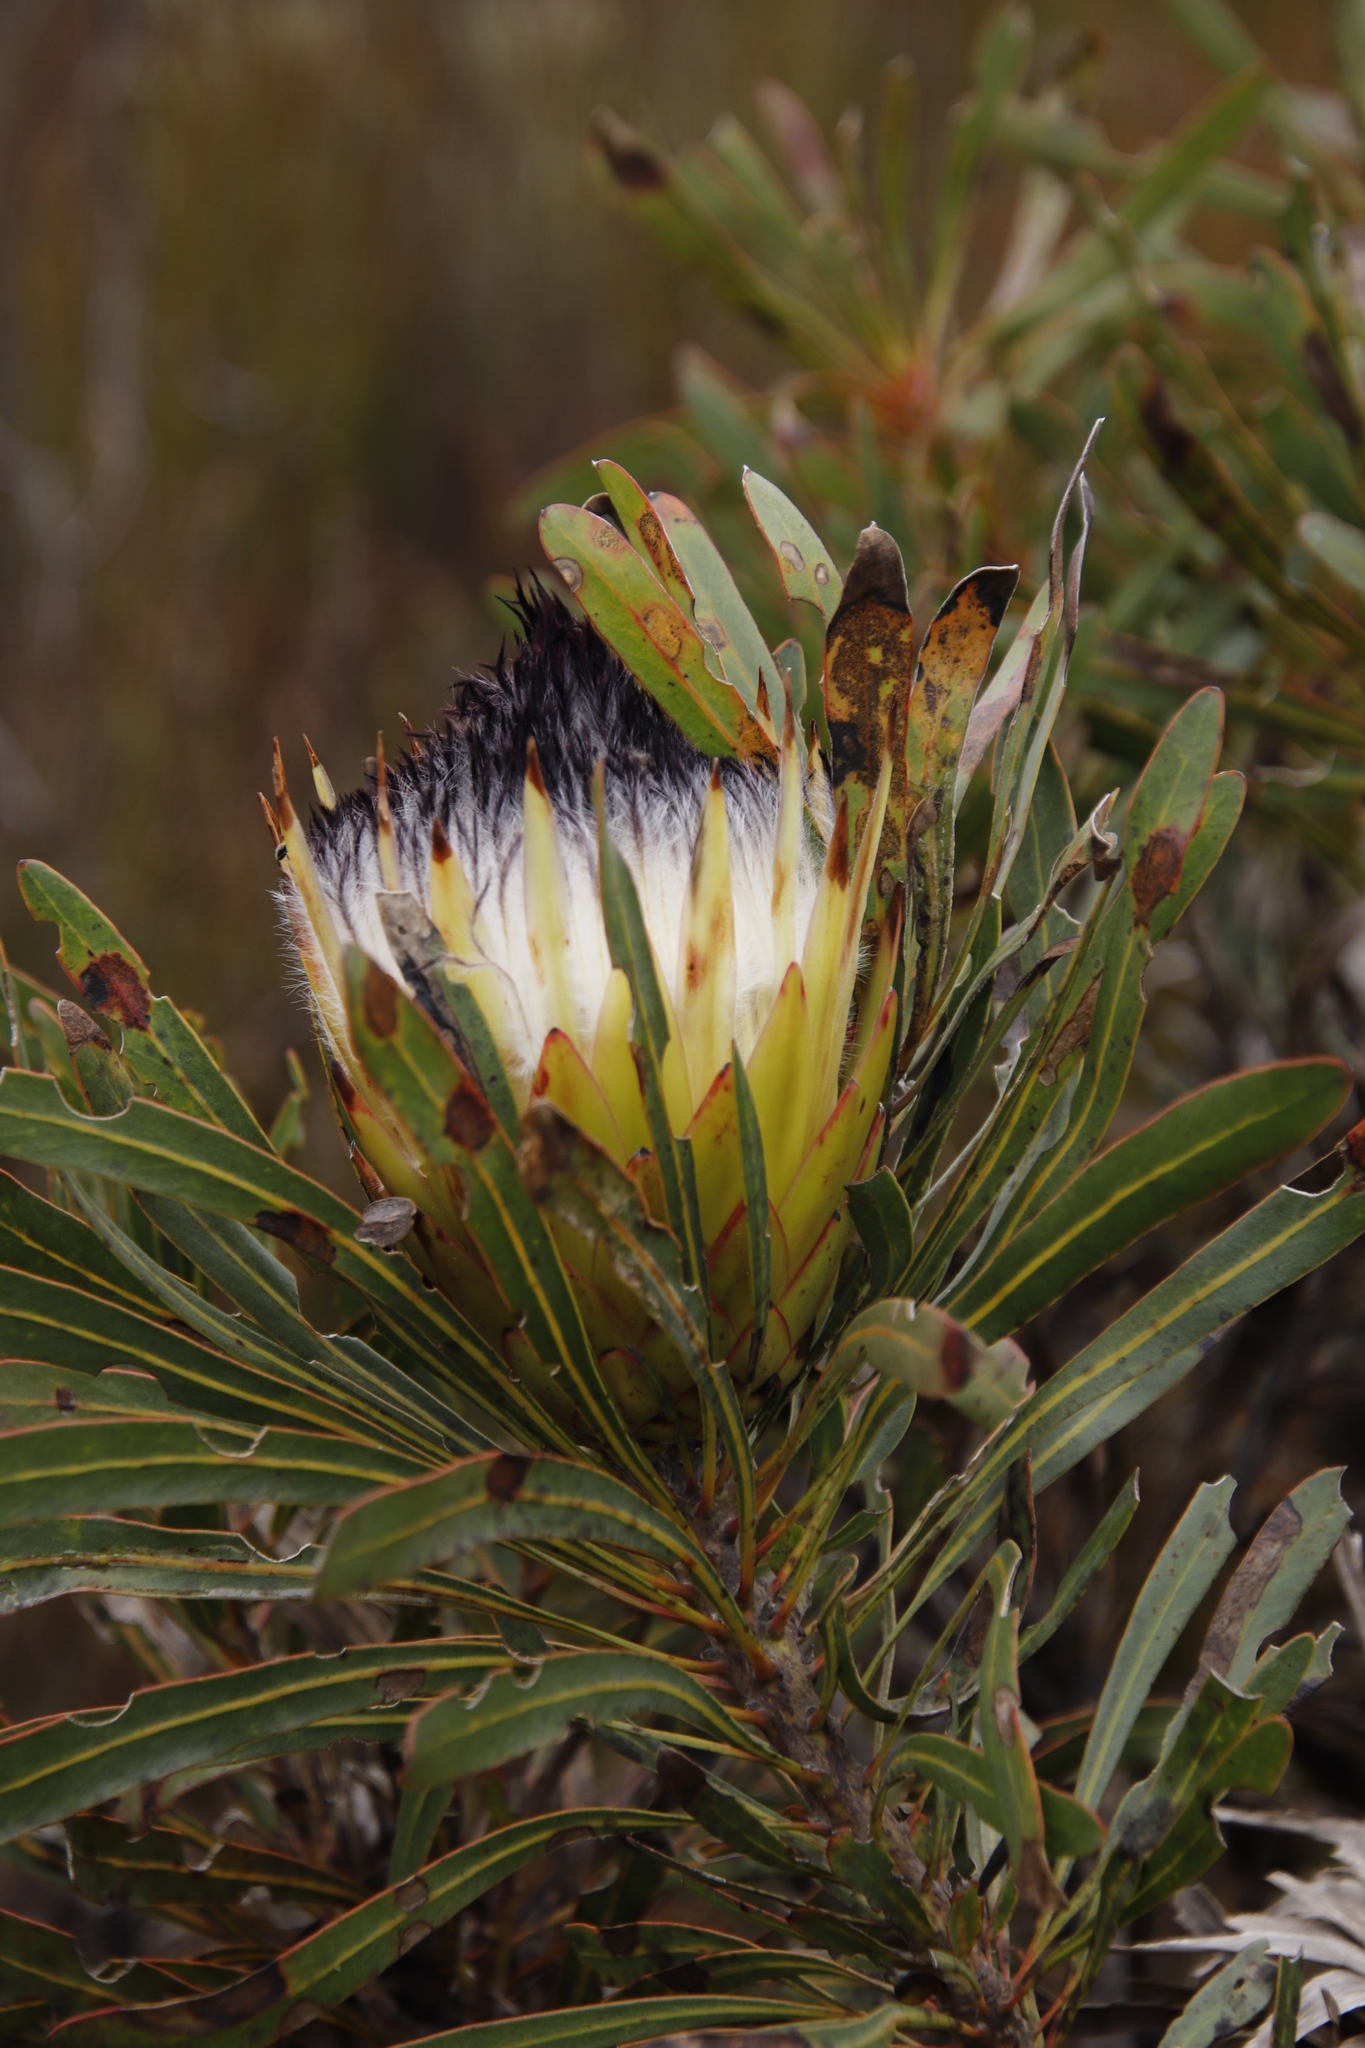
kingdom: Plantae
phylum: Tracheophyta
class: Magnoliopsida
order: Proteales
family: Proteaceae
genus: Protea
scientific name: Protea longifolia
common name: Long-leaf sugarbush
